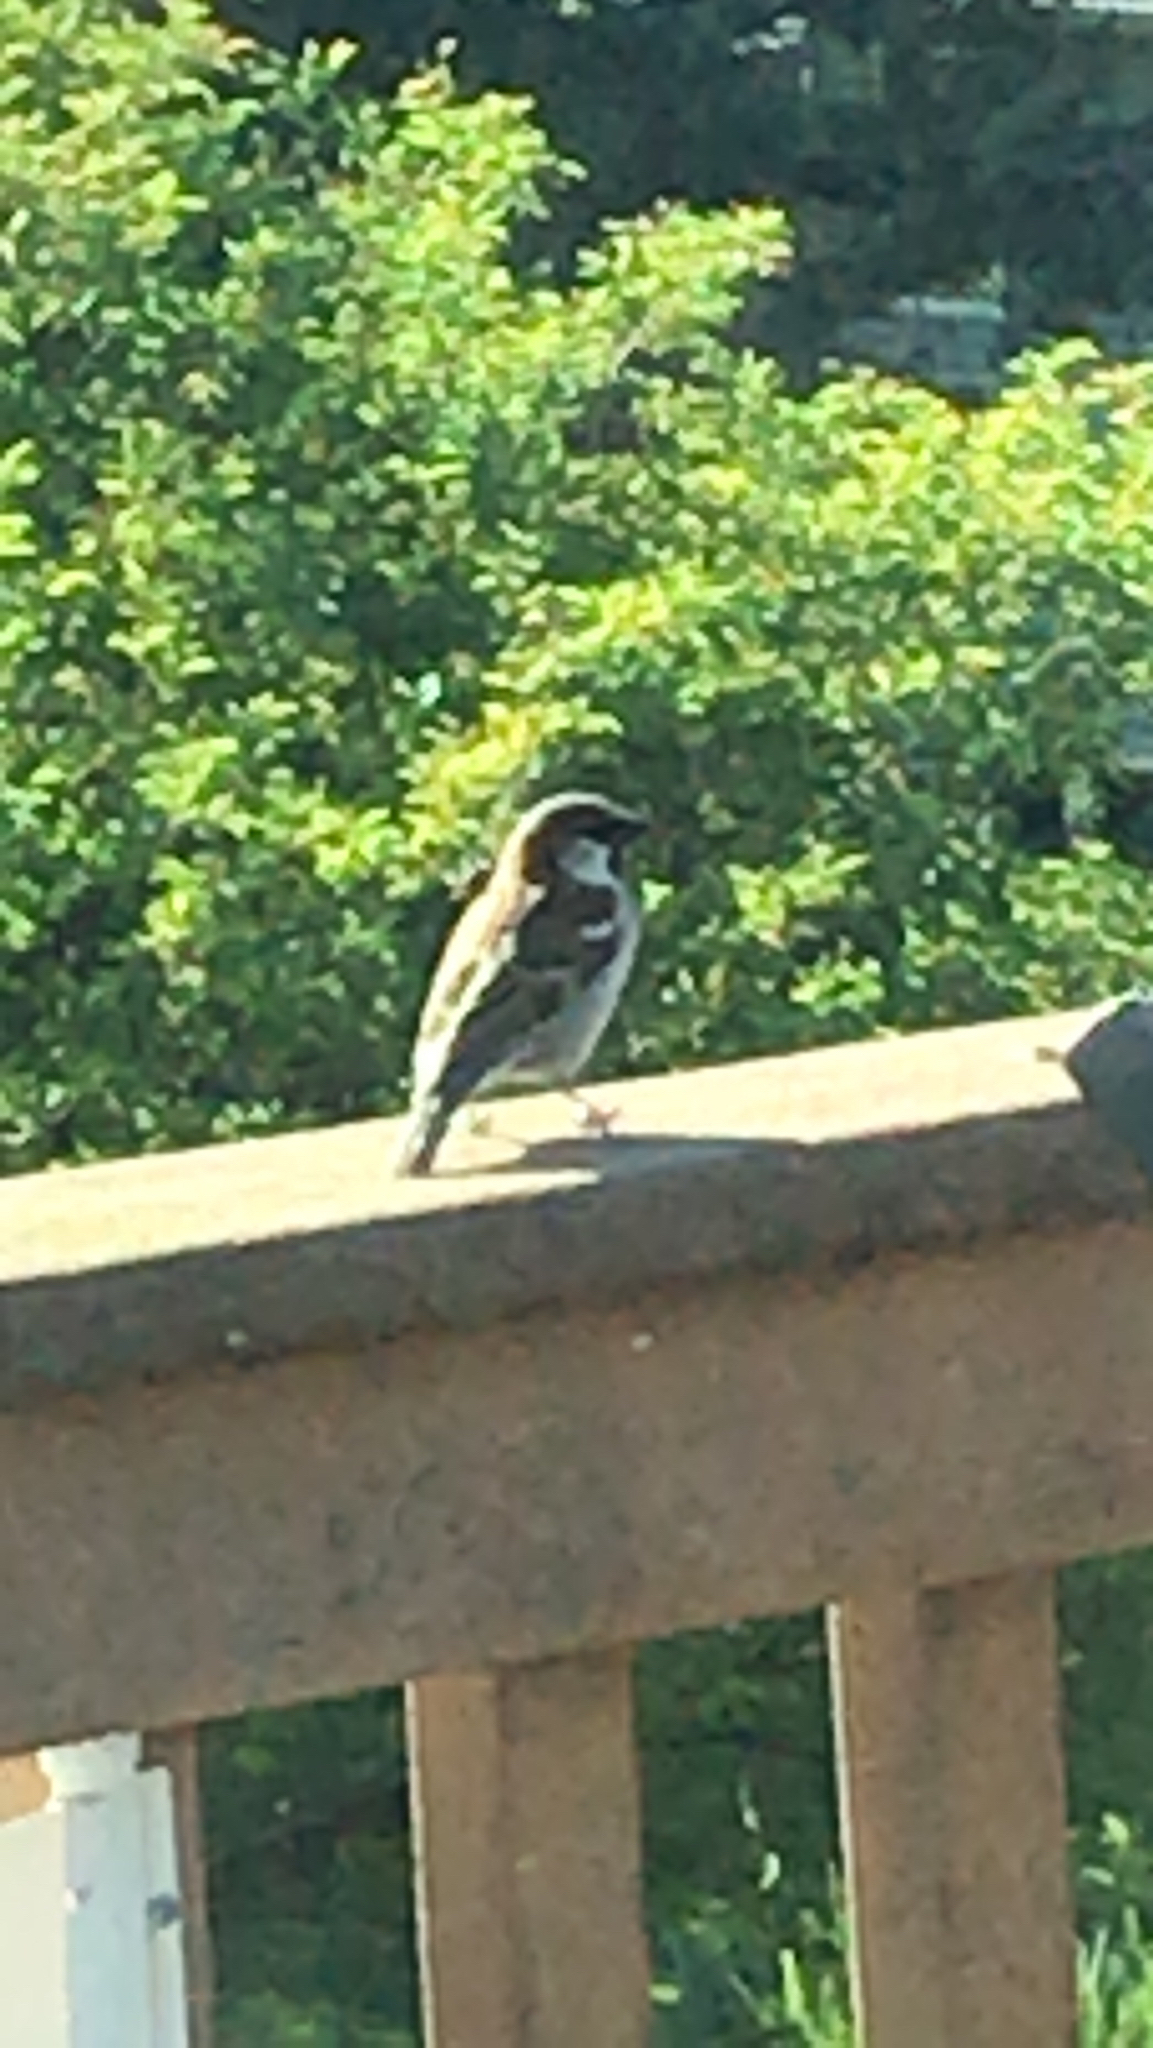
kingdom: Animalia
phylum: Chordata
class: Aves
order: Passeriformes
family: Passeridae
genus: Passer
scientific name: Passer domesticus
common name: House sparrow
